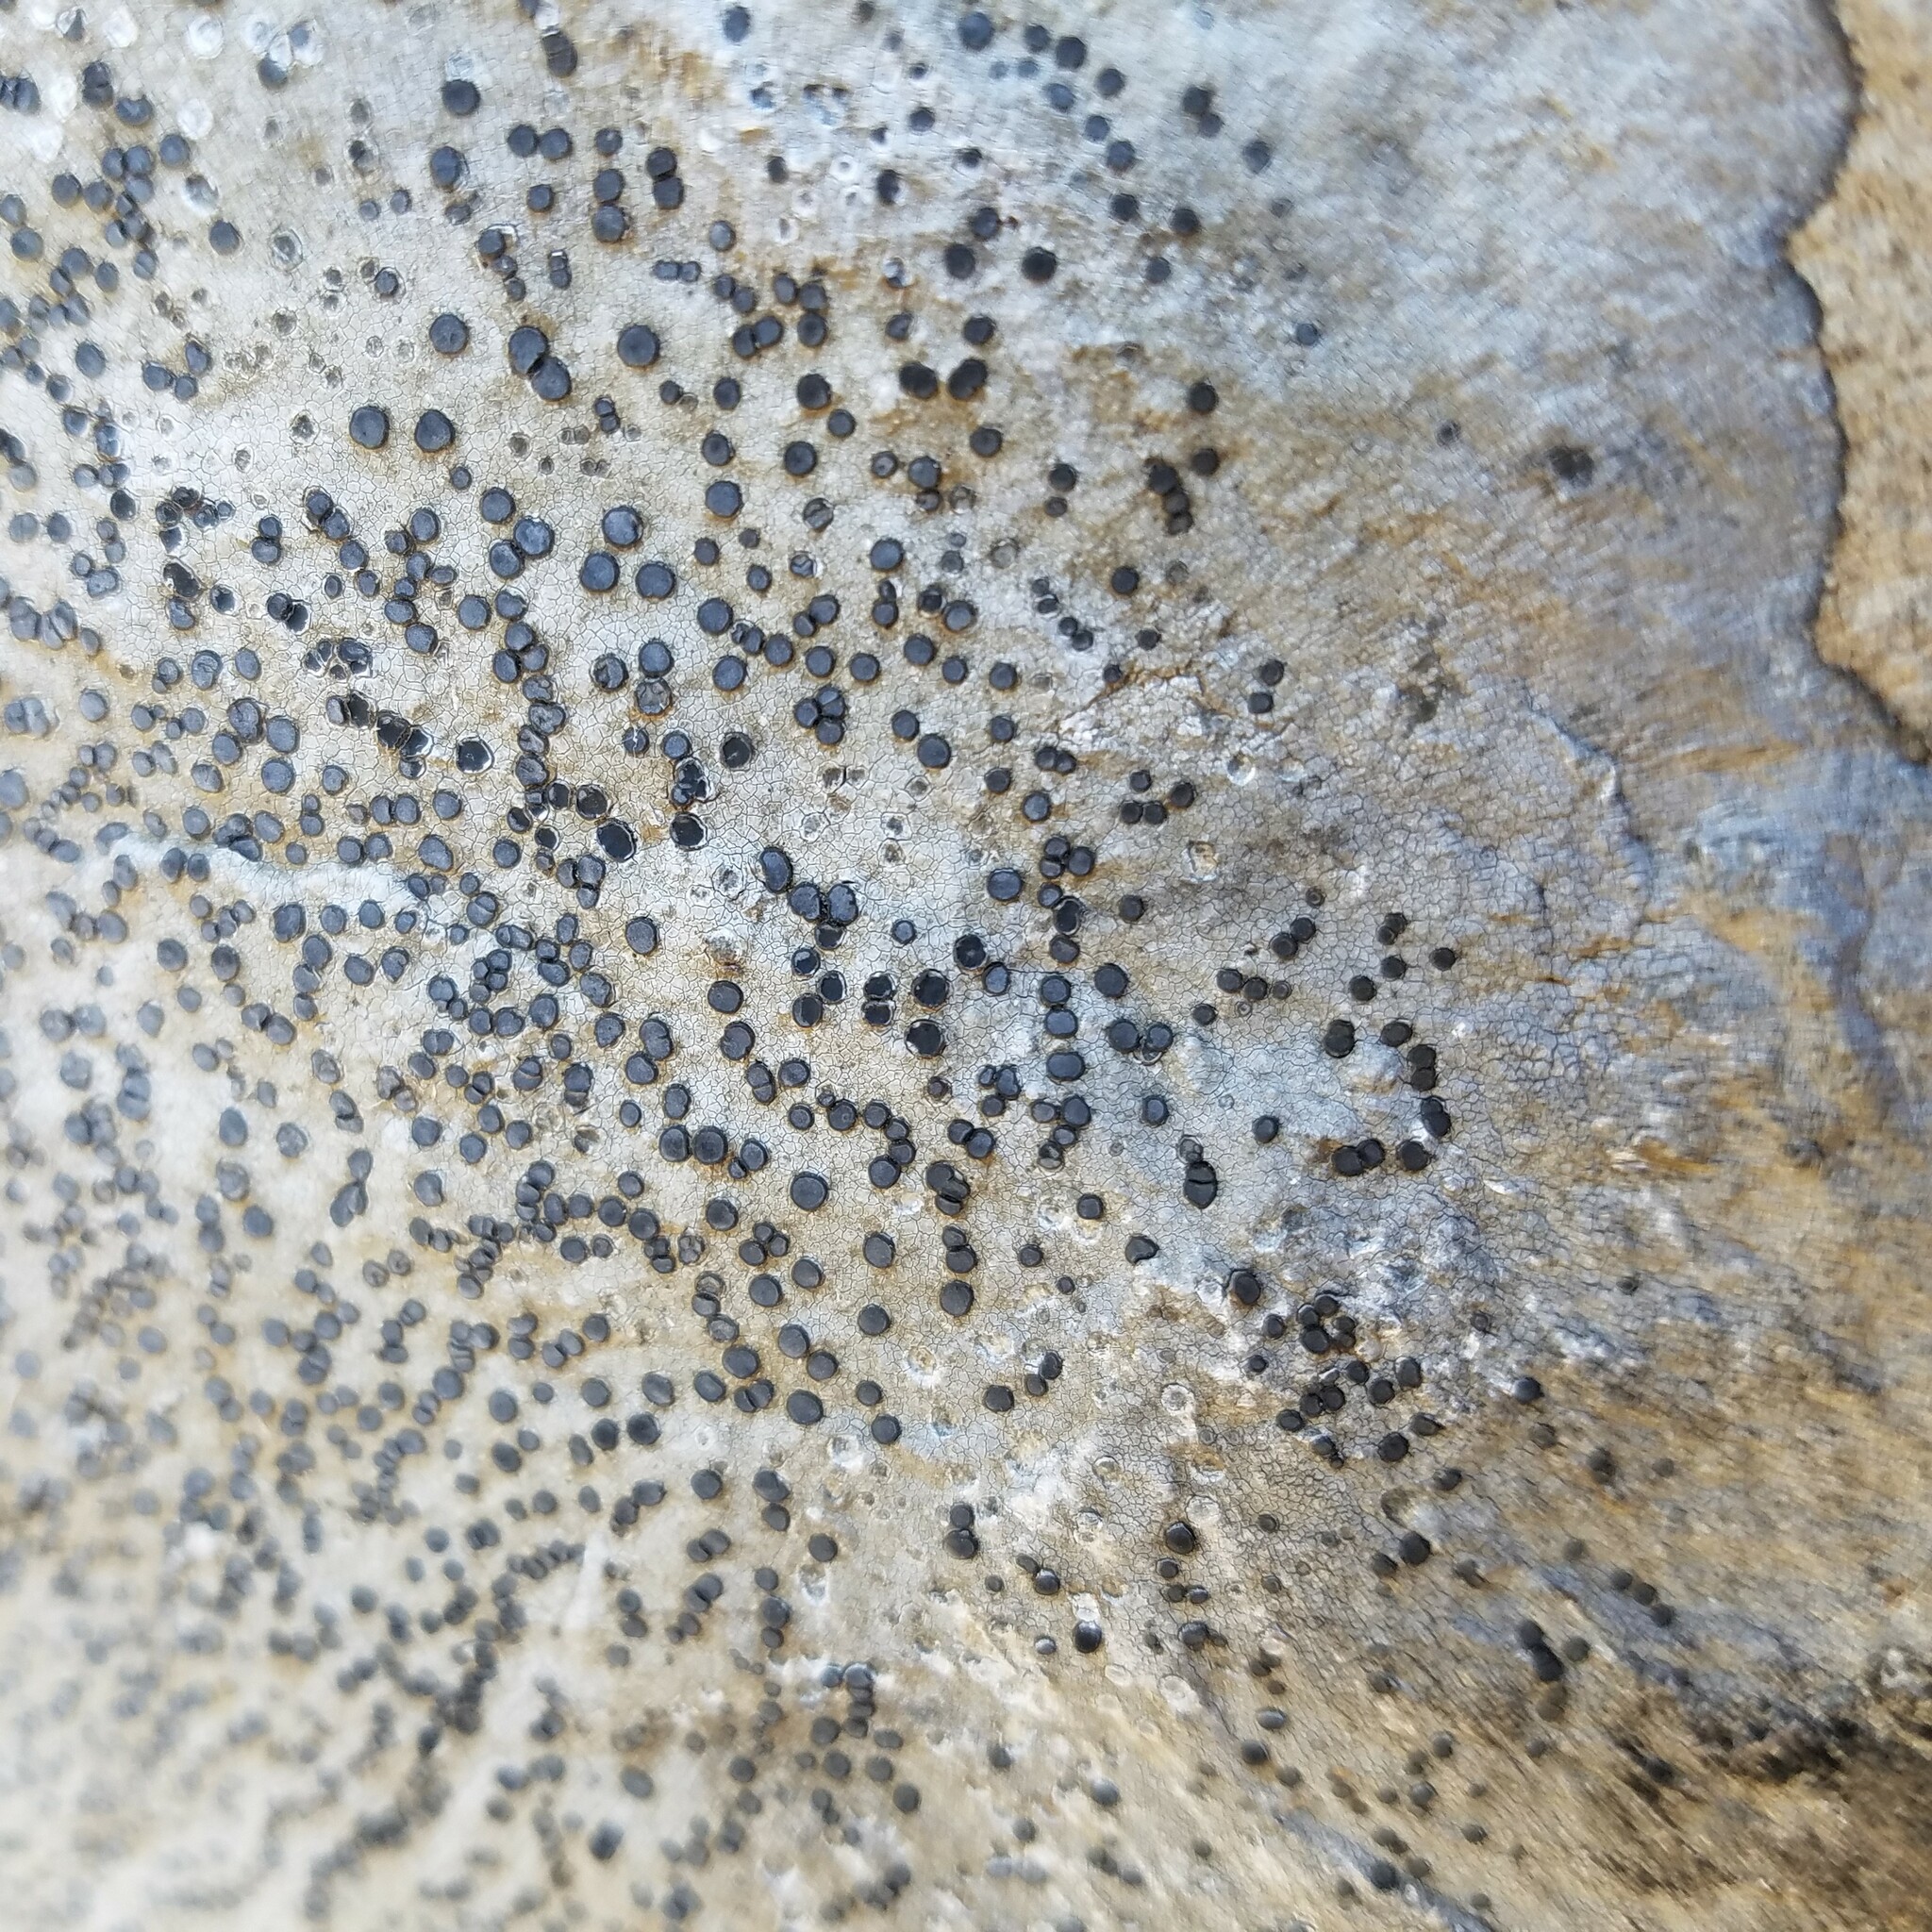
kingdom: Fungi
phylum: Ascomycota
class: Lecanoromycetes
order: Lecideales
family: Lecideaceae
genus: Porpidia
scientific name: Porpidia albocaerulescens
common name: Smokey-eyed boulder lichen
